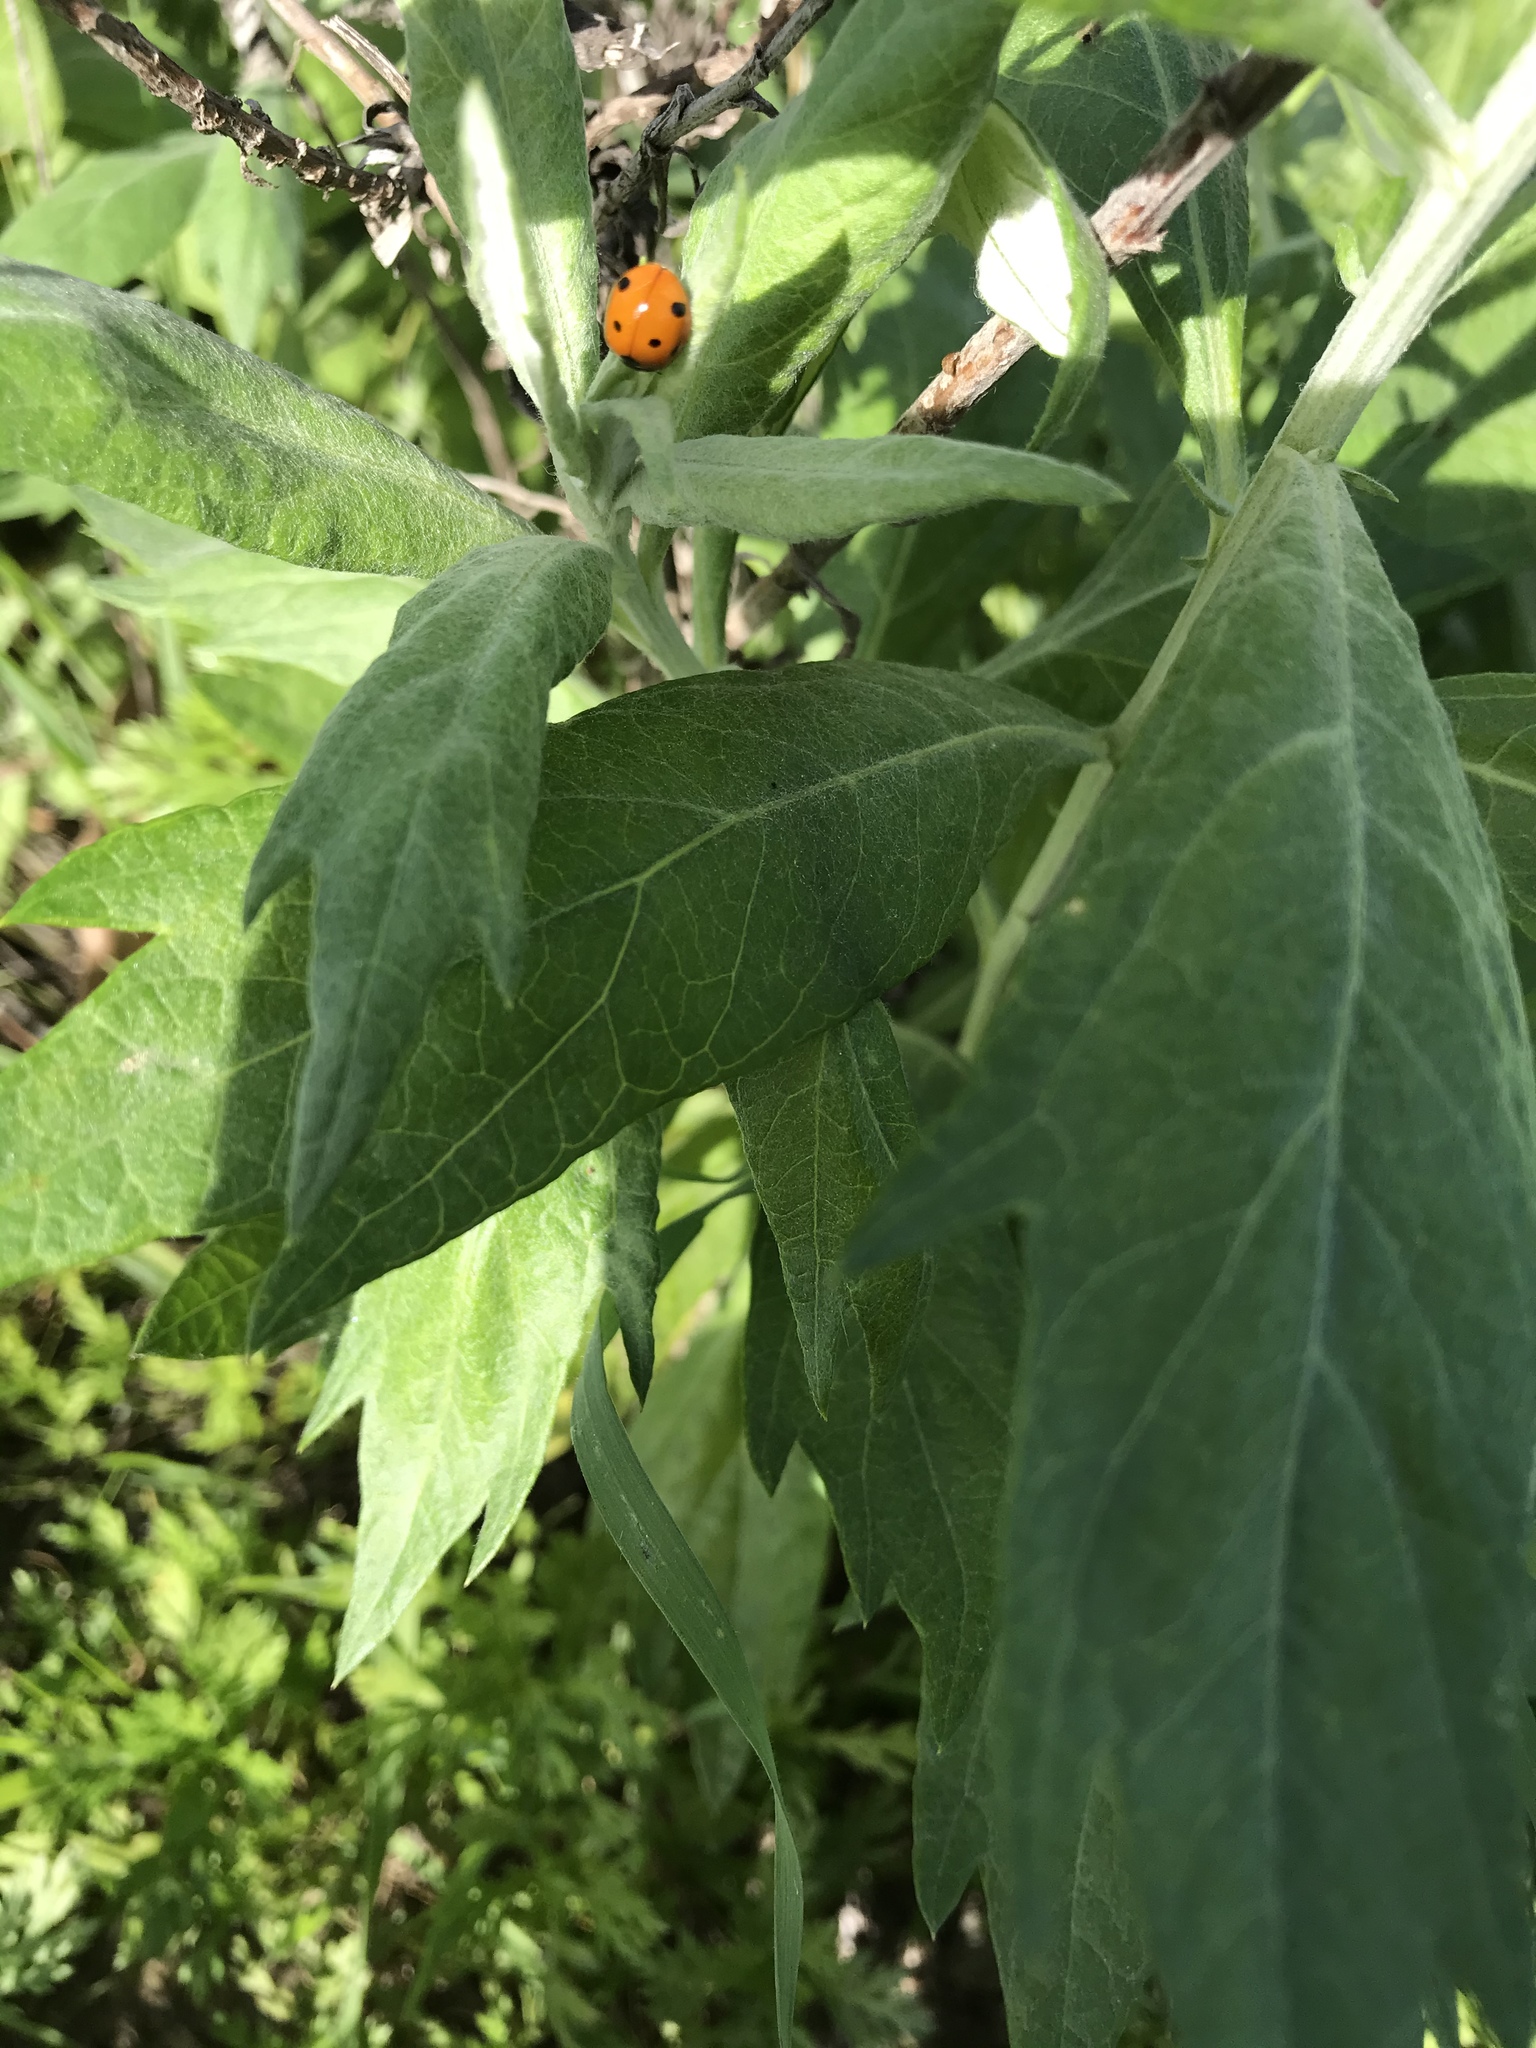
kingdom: Animalia
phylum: Arthropoda
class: Insecta
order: Coleoptera
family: Coccinellidae
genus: Coccinella
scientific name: Coccinella septempunctata
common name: Sevenspotted lady beetle
